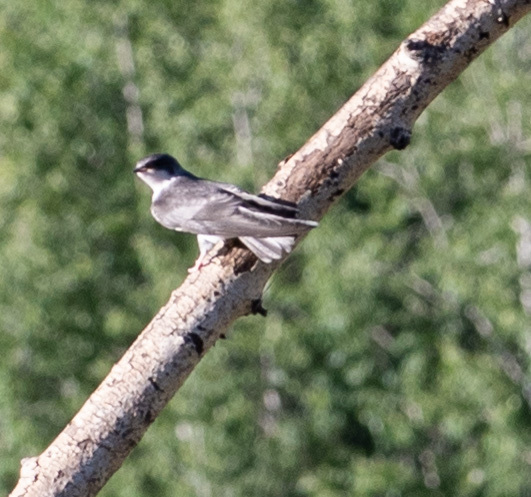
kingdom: Animalia
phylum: Chordata
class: Aves
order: Passeriformes
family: Hirundinidae
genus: Tachycineta
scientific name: Tachycineta bicolor
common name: Tree swallow
